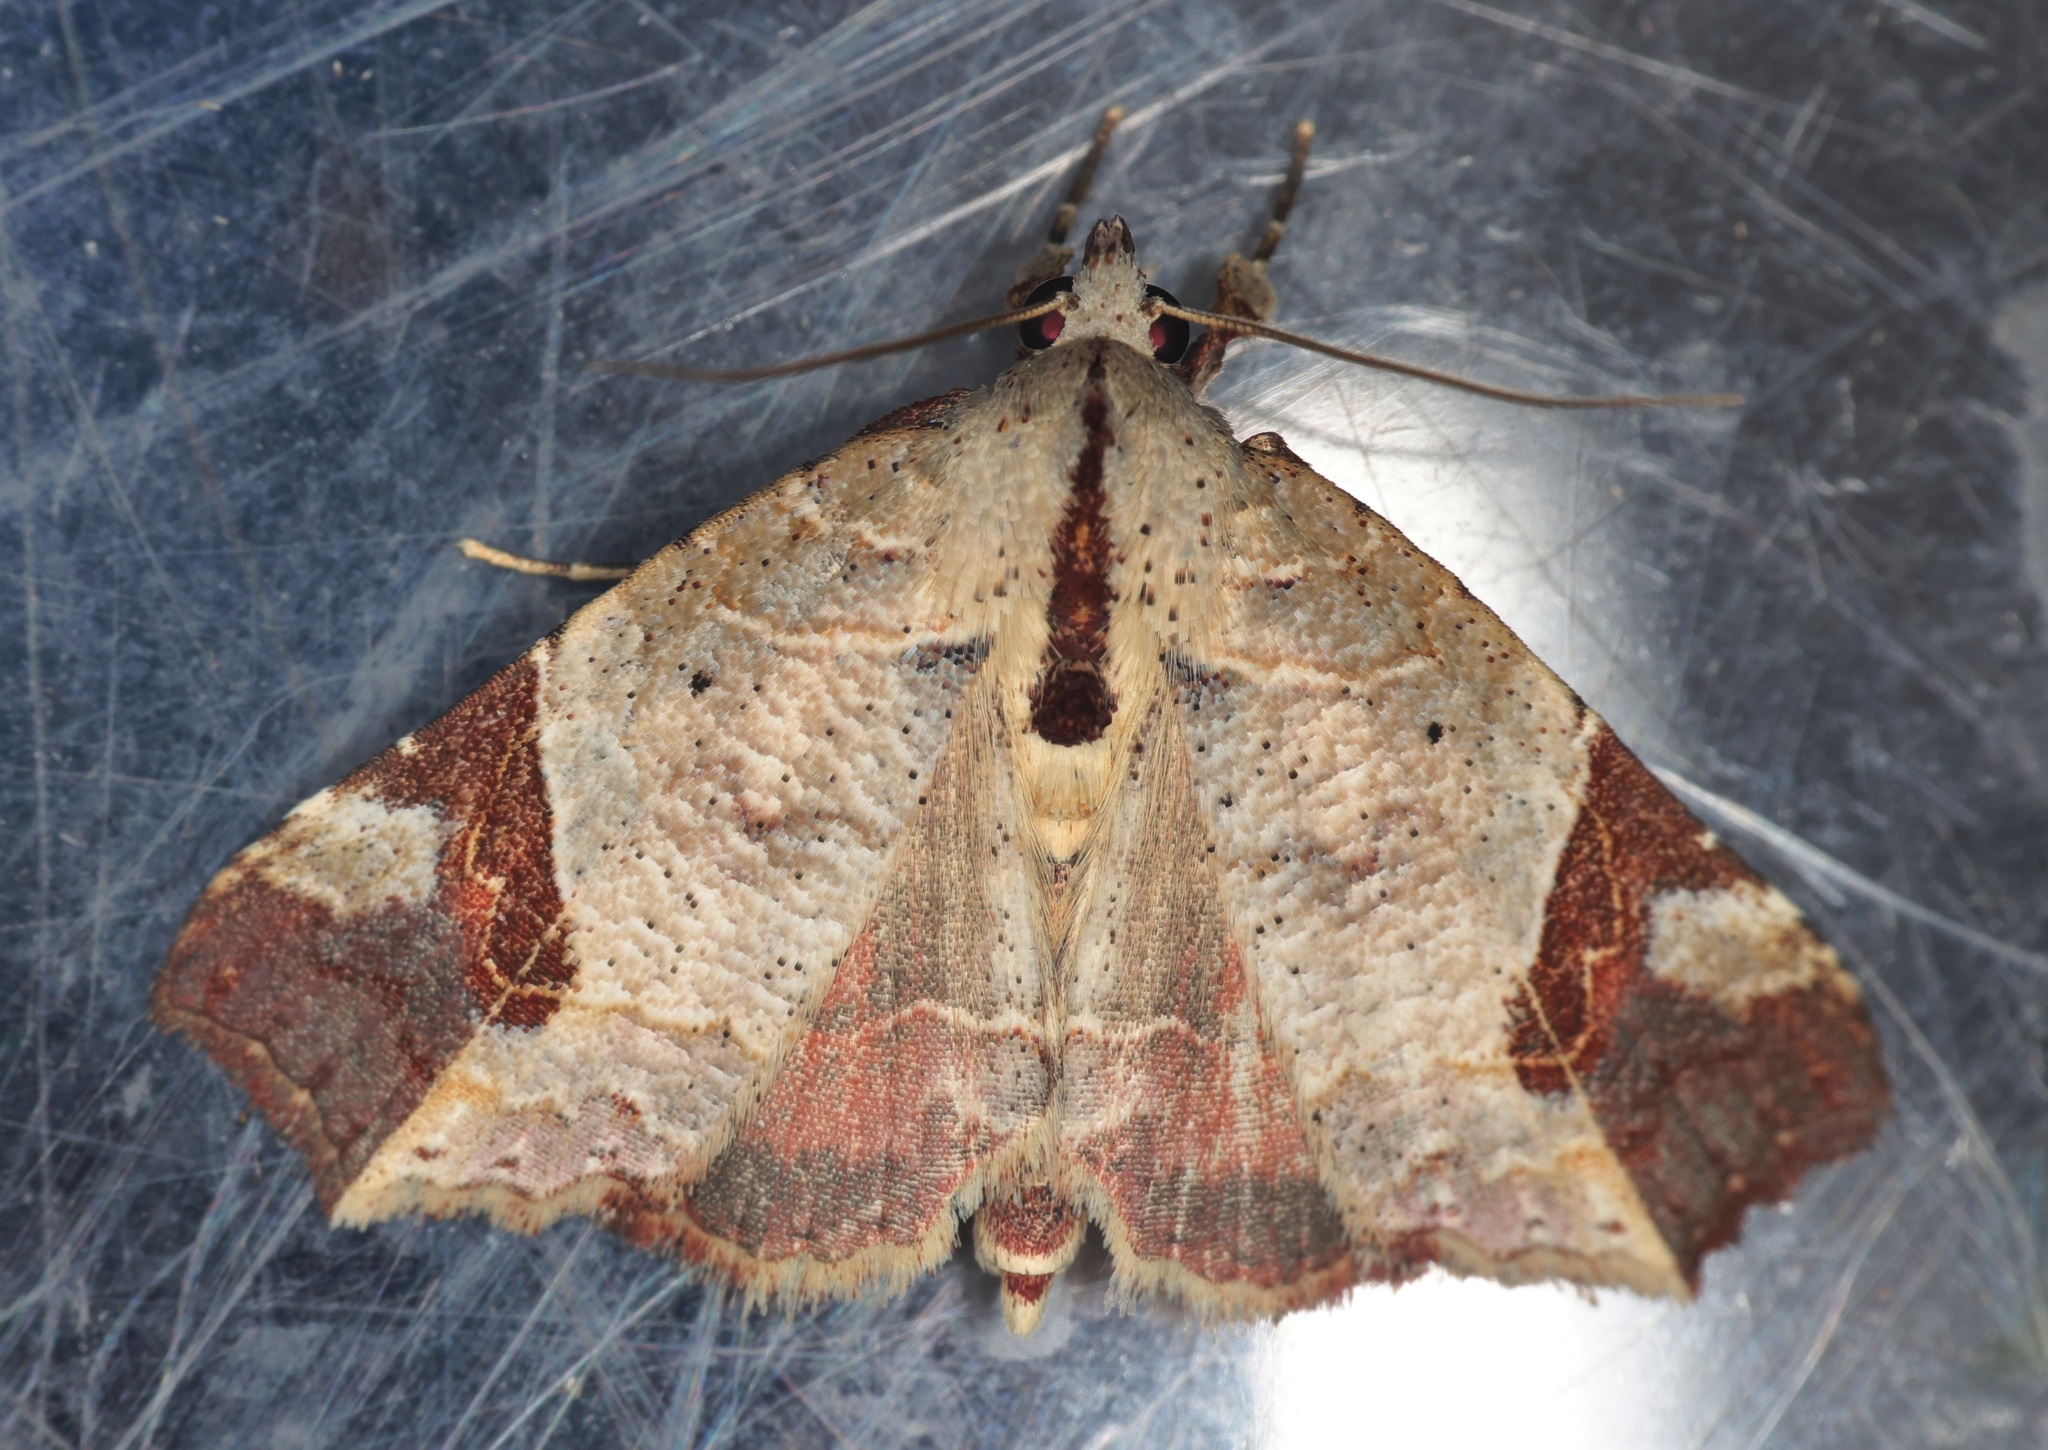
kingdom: Animalia
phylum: Arthropoda
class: Insecta
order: Lepidoptera
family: Erebidae
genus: Tamba
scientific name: Tamba cautiperas
